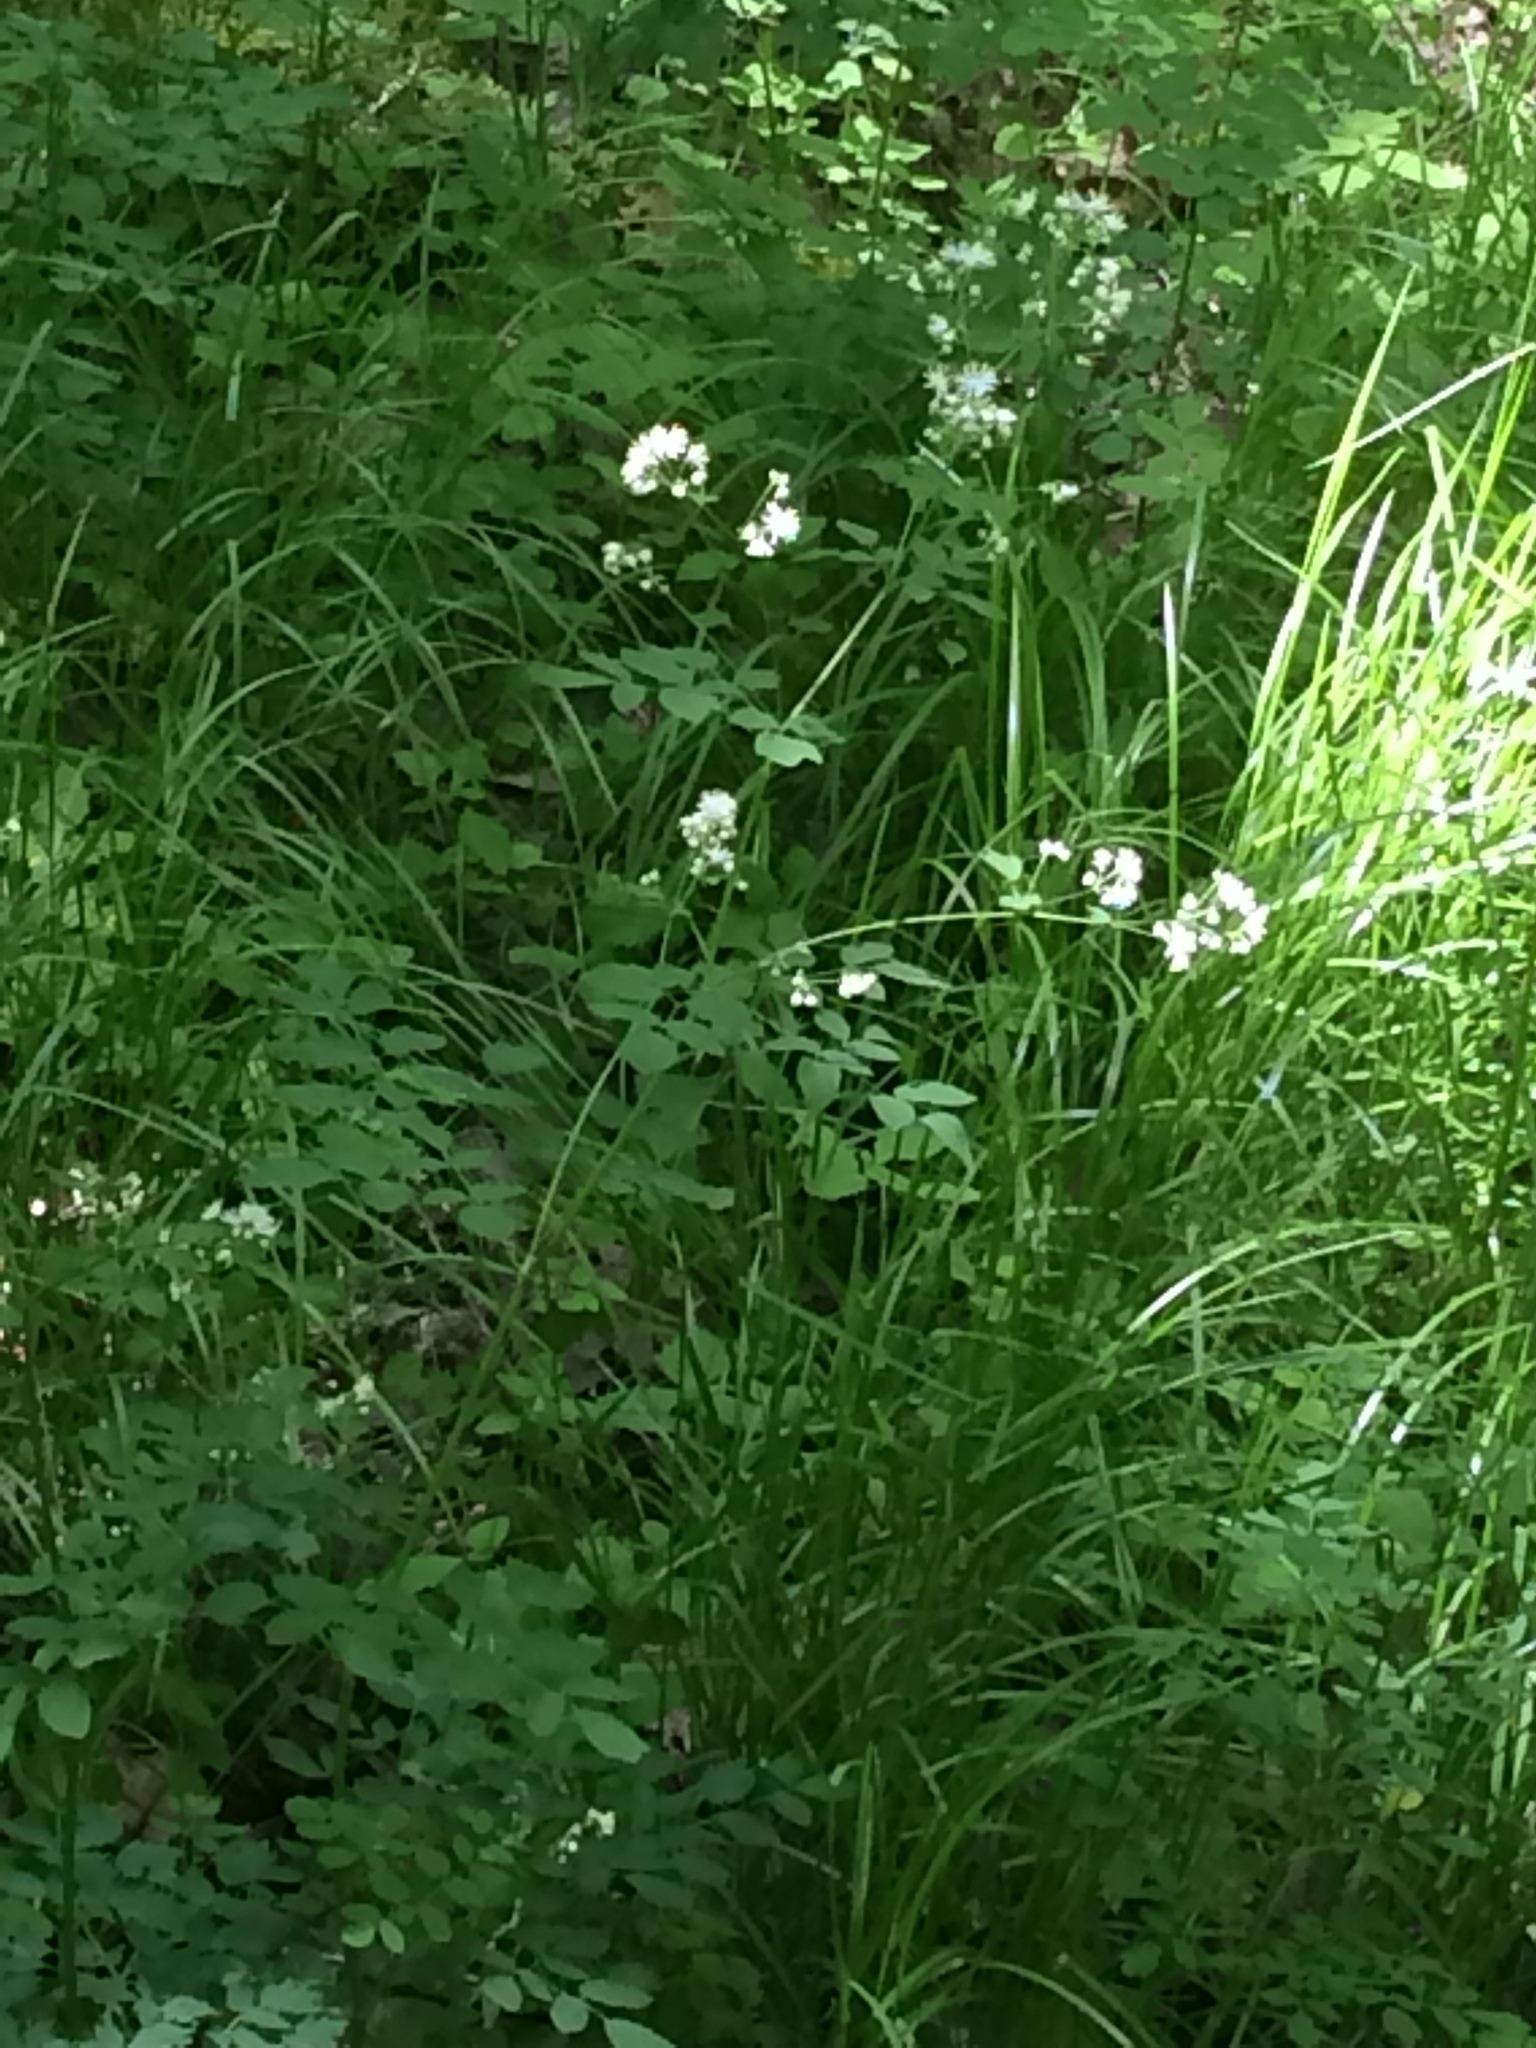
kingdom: Plantae
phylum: Tracheophyta
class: Magnoliopsida
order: Ranunculales
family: Ranunculaceae
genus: Thalictrum
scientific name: Thalictrum pubescens
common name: King-of-the-meadow
